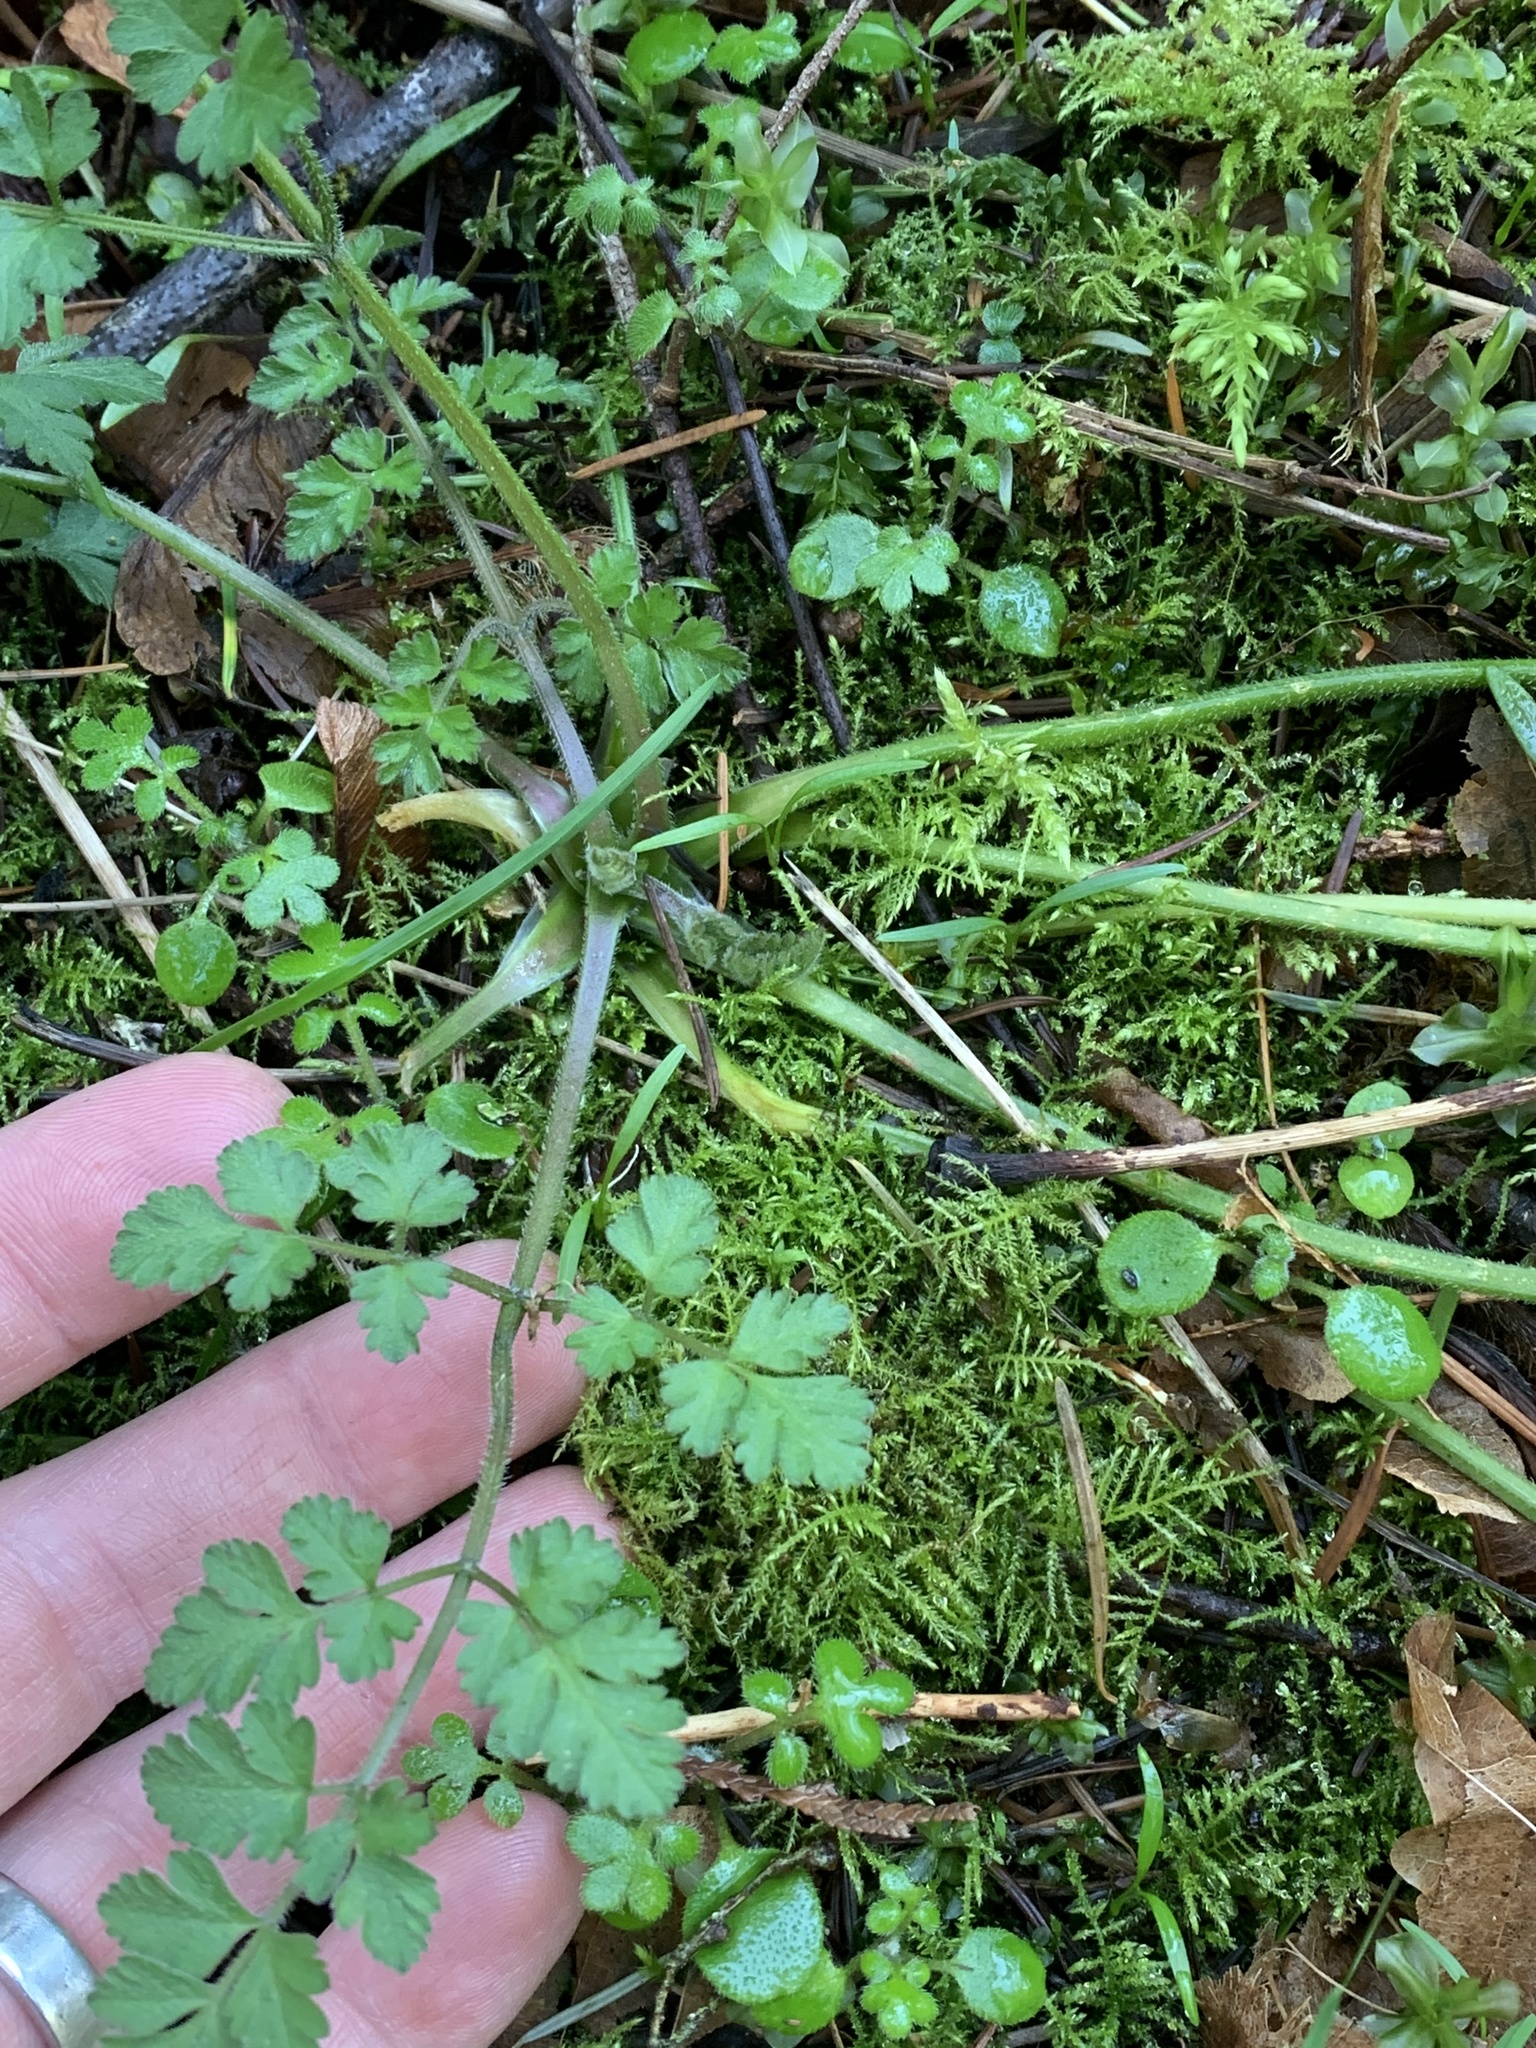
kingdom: Plantae
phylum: Tracheophyta
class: Magnoliopsida
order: Apiales
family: Apiaceae
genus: Chaerophyllum
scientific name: Chaerophyllum temulum
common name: Rough chervil
